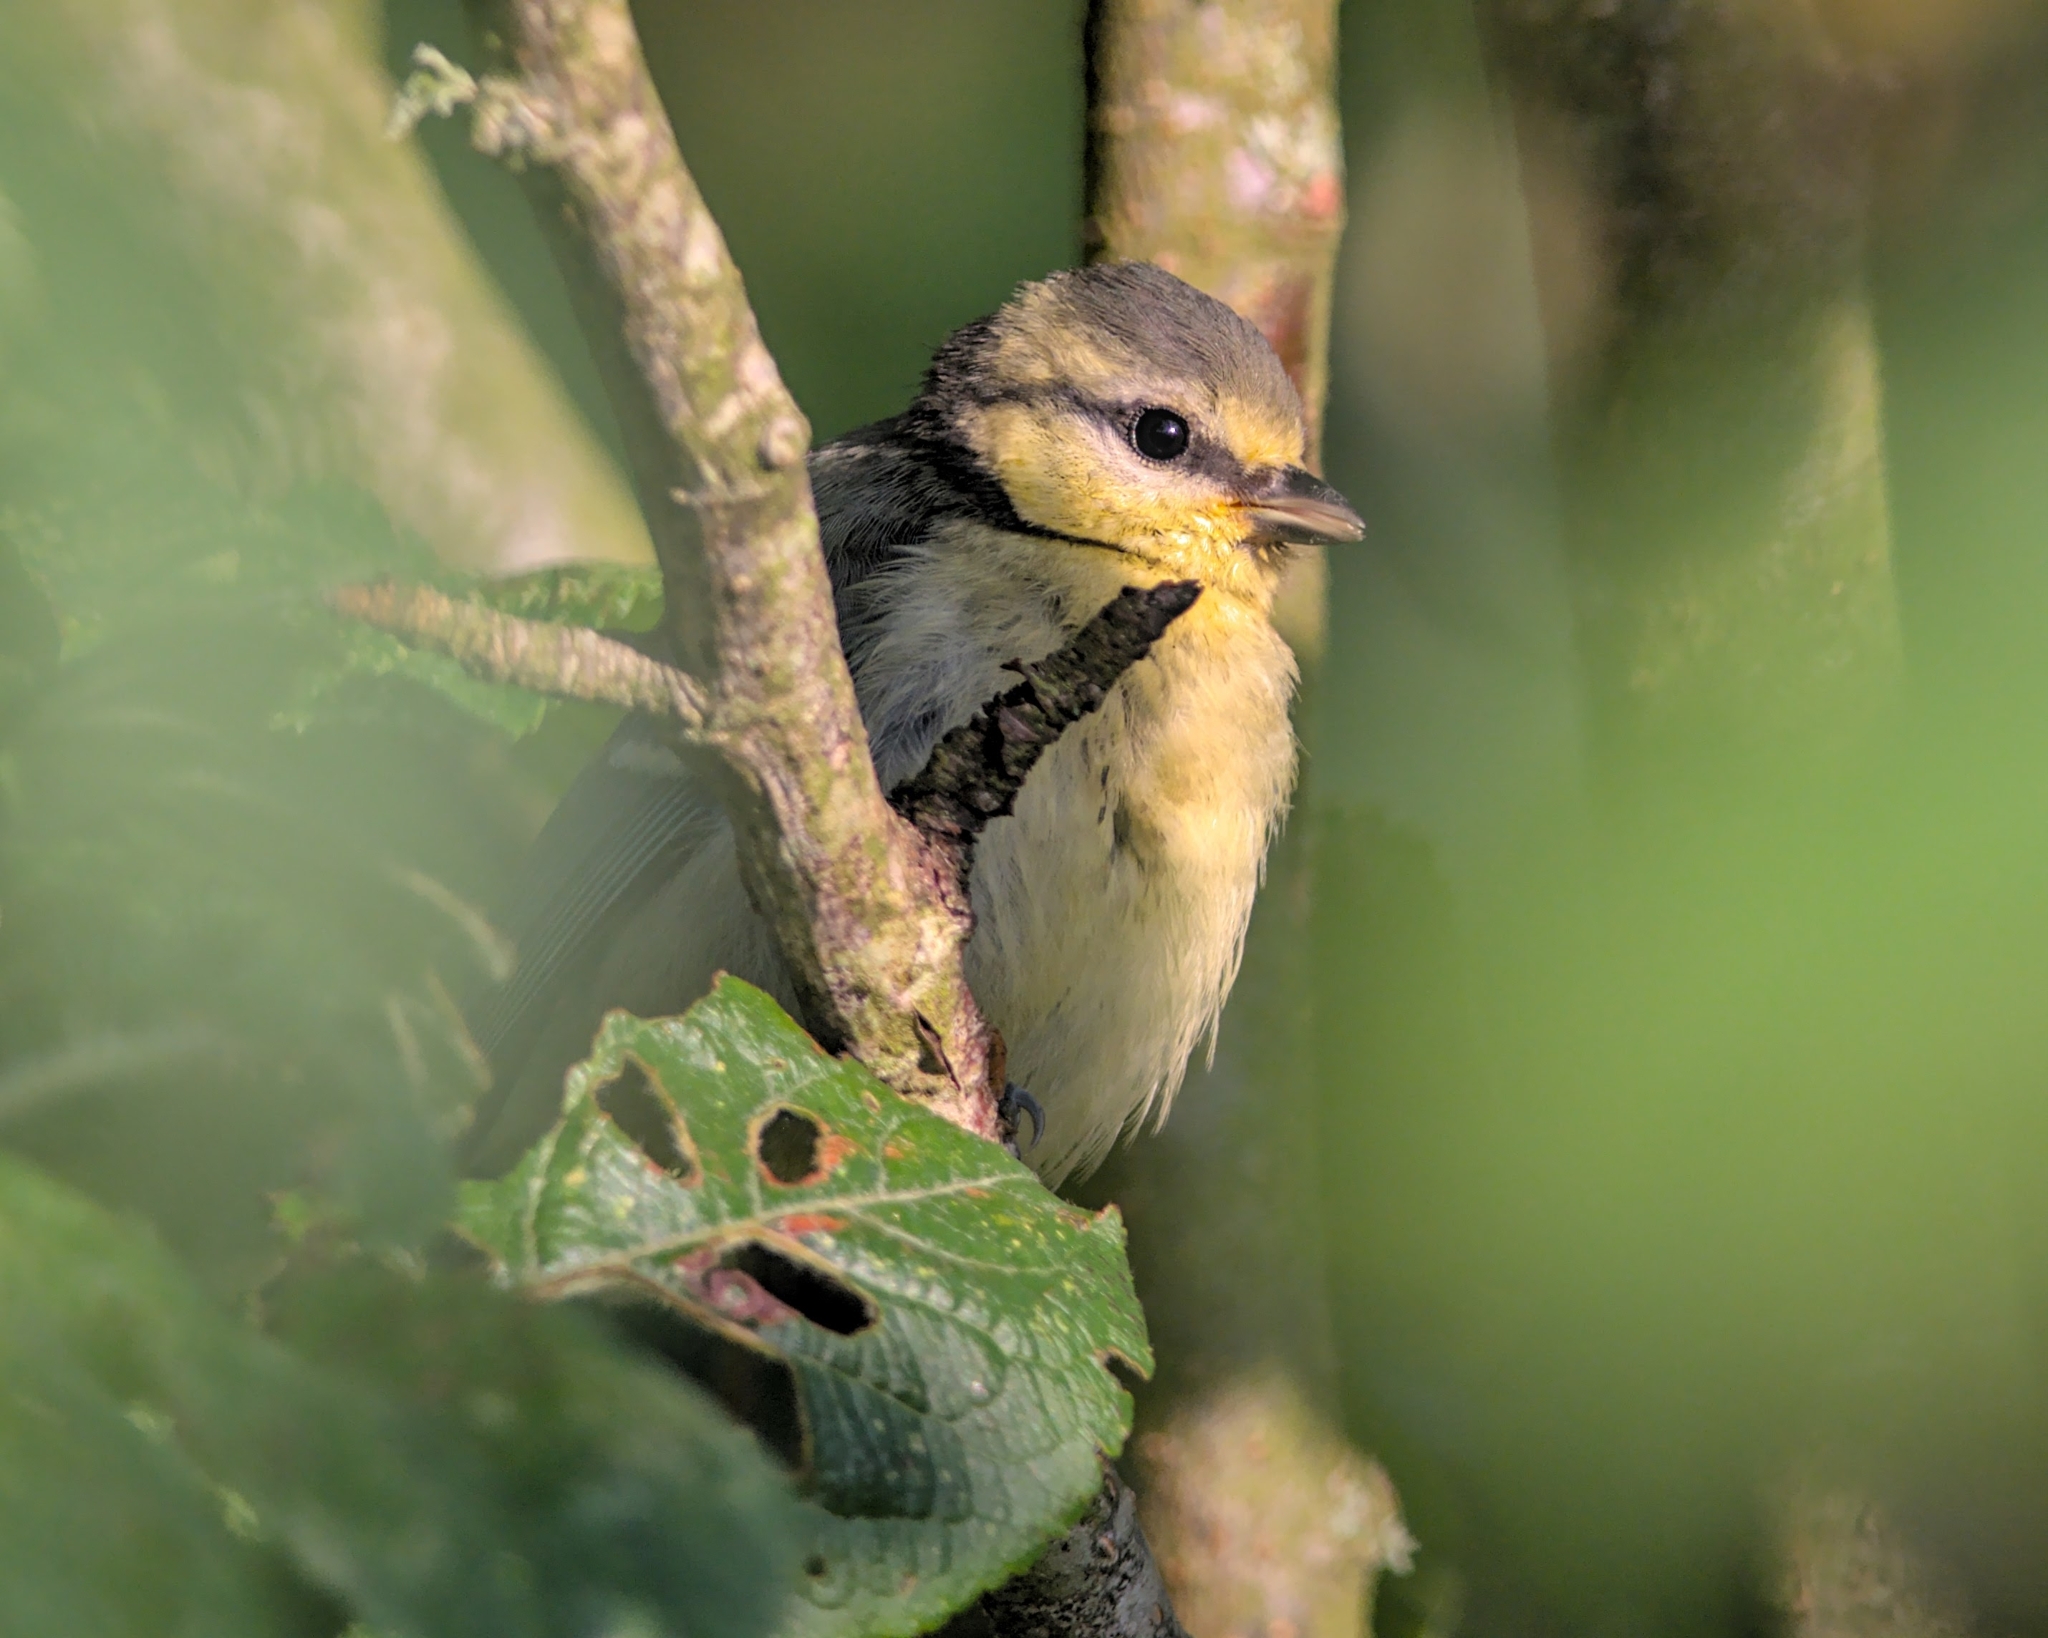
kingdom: Animalia
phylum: Chordata
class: Aves
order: Passeriformes
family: Paridae
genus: Cyanistes
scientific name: Cyanistes caeruleus
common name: Eurasian blue tit
